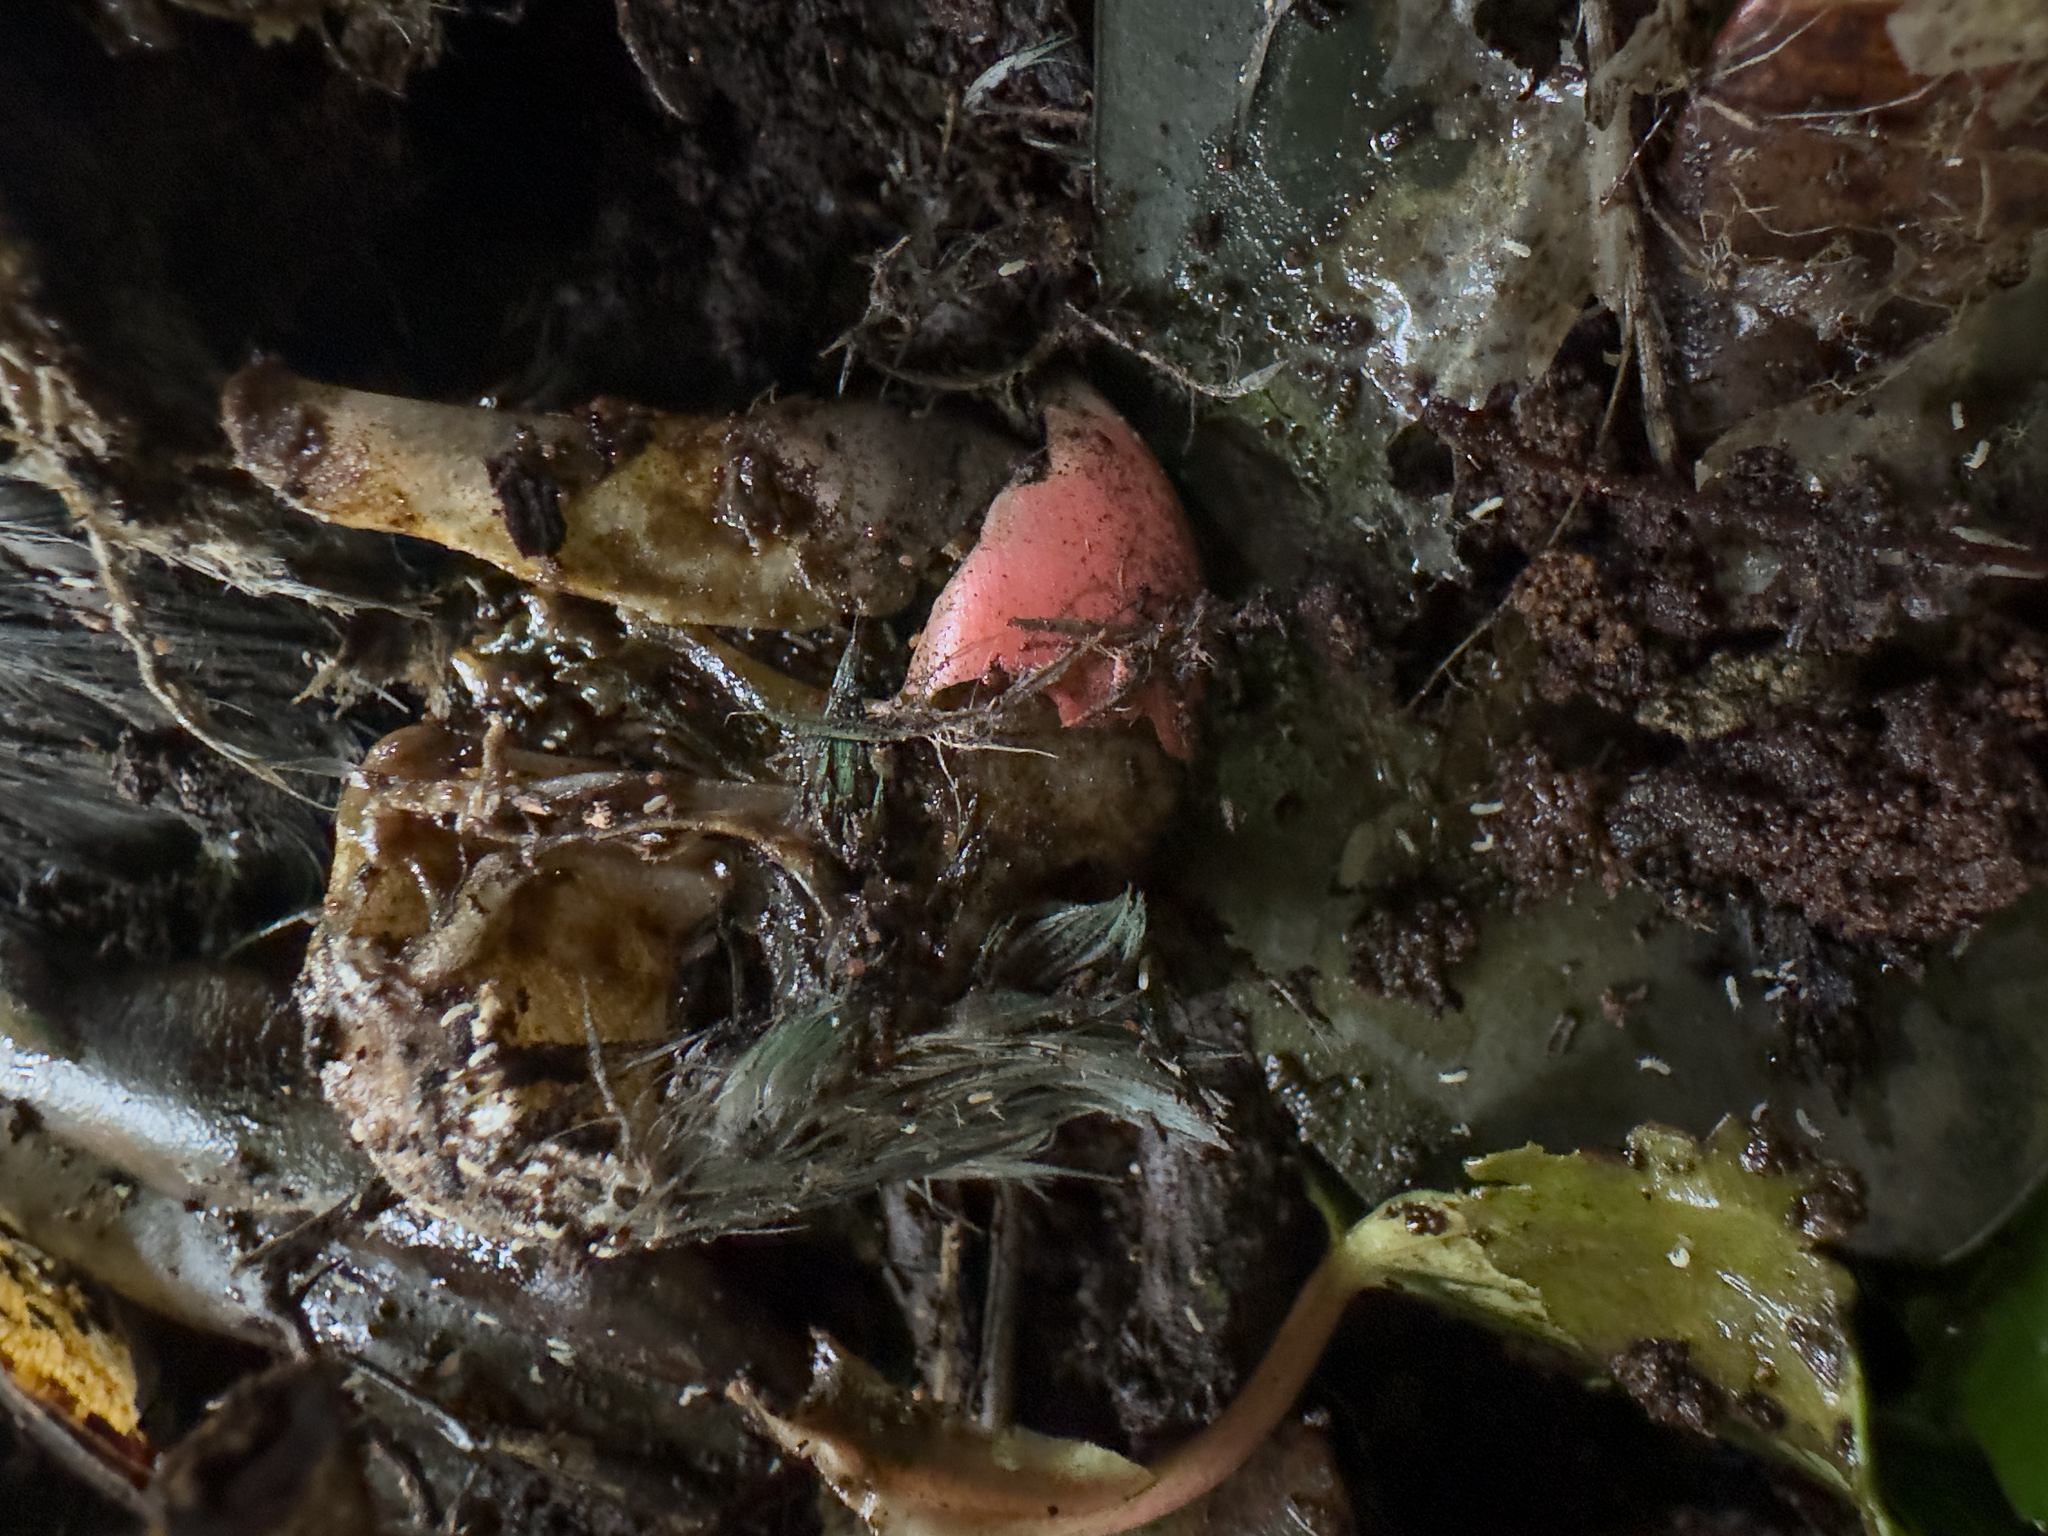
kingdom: Animalia
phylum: Chordata
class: Aves
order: Psittaciformes
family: Psittacidae
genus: Psittacula
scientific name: Psittacula krameri
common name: Rose-ringed parakeet
